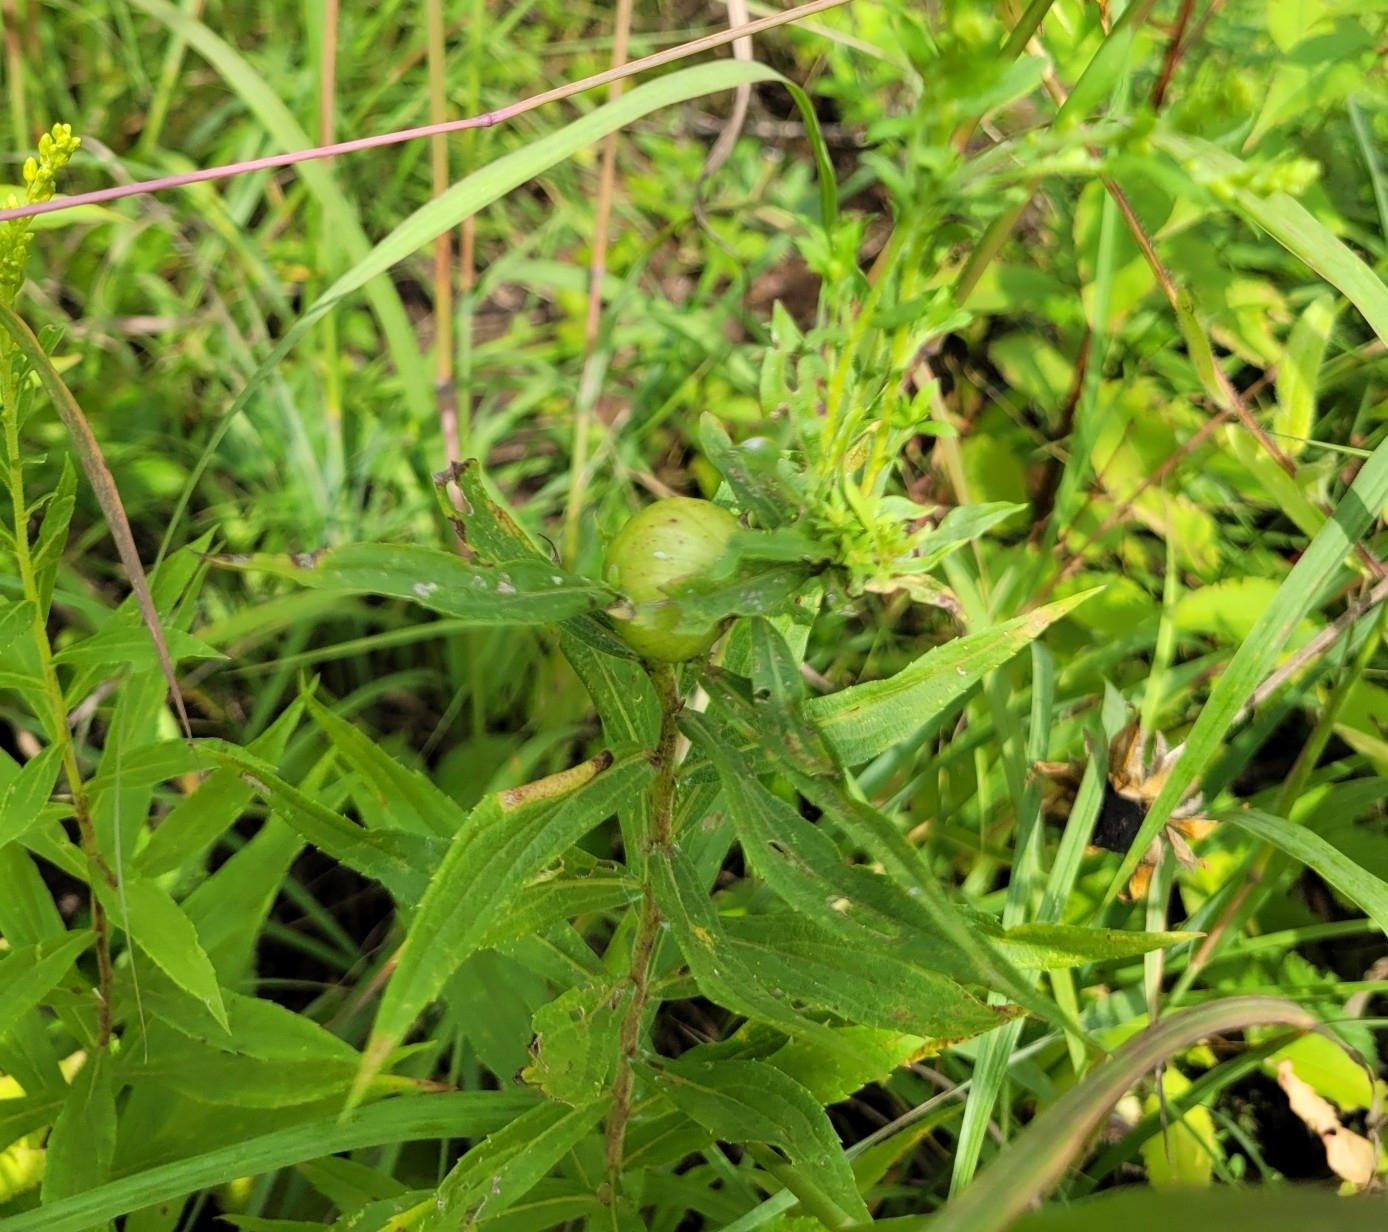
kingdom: Animalia
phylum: Arthropoda
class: Insecta
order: Diptera
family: Tephritidae
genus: Eurosta
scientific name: Eurosta solidaginis
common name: Goldenrod gall fly
